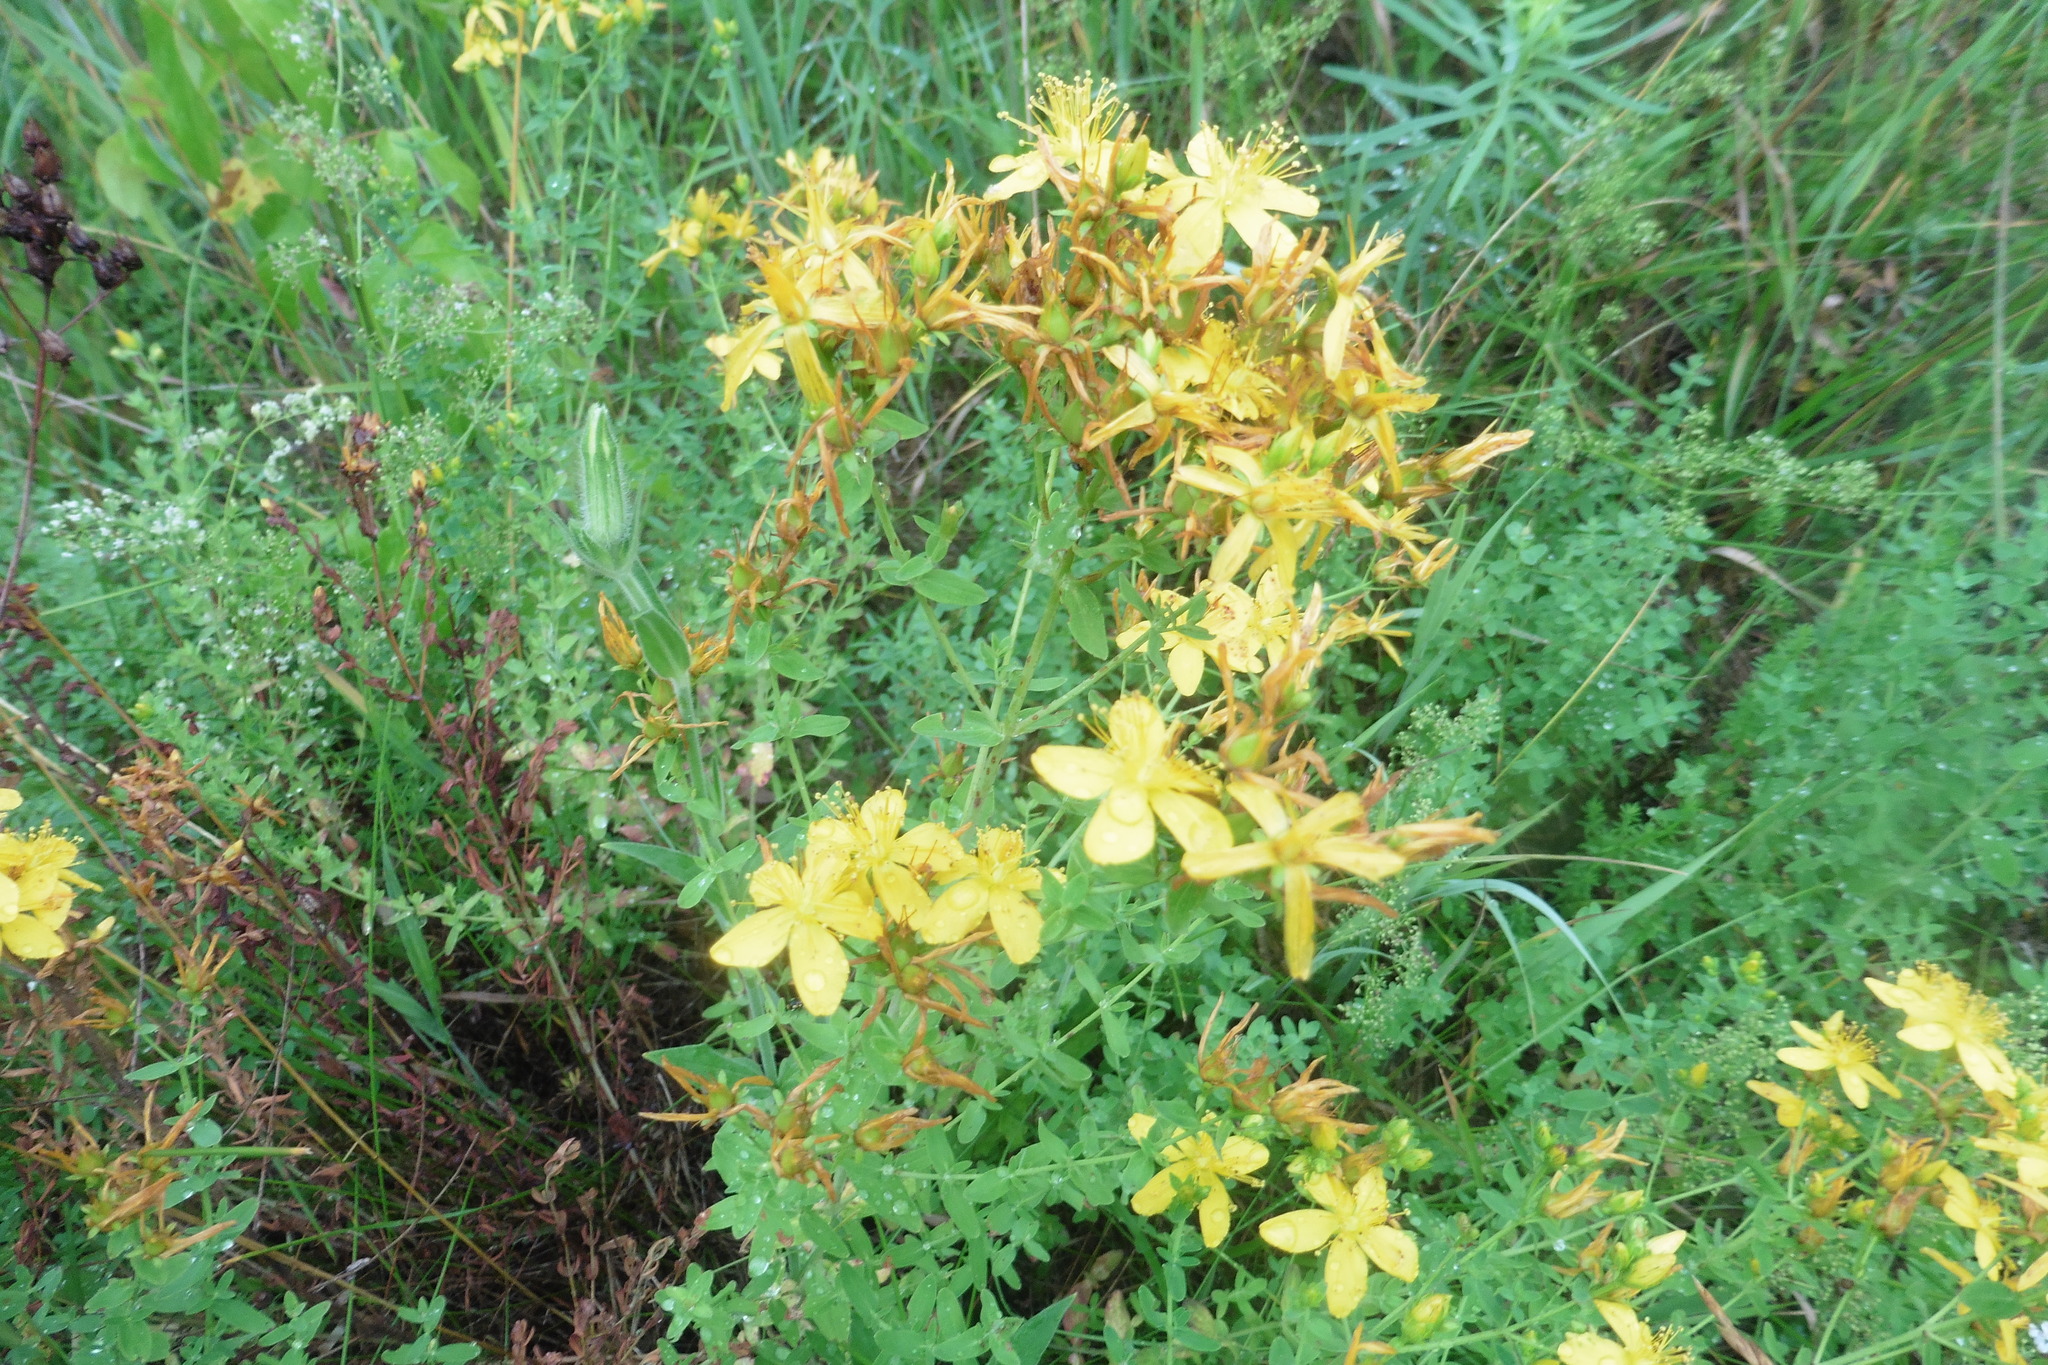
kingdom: Plantae
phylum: Tracheophyta
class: Magnoliopsida
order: Malpighiales
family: Hypericaceae
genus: Hypericum
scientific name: Hypericum perforatum
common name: Common st. johnswort
